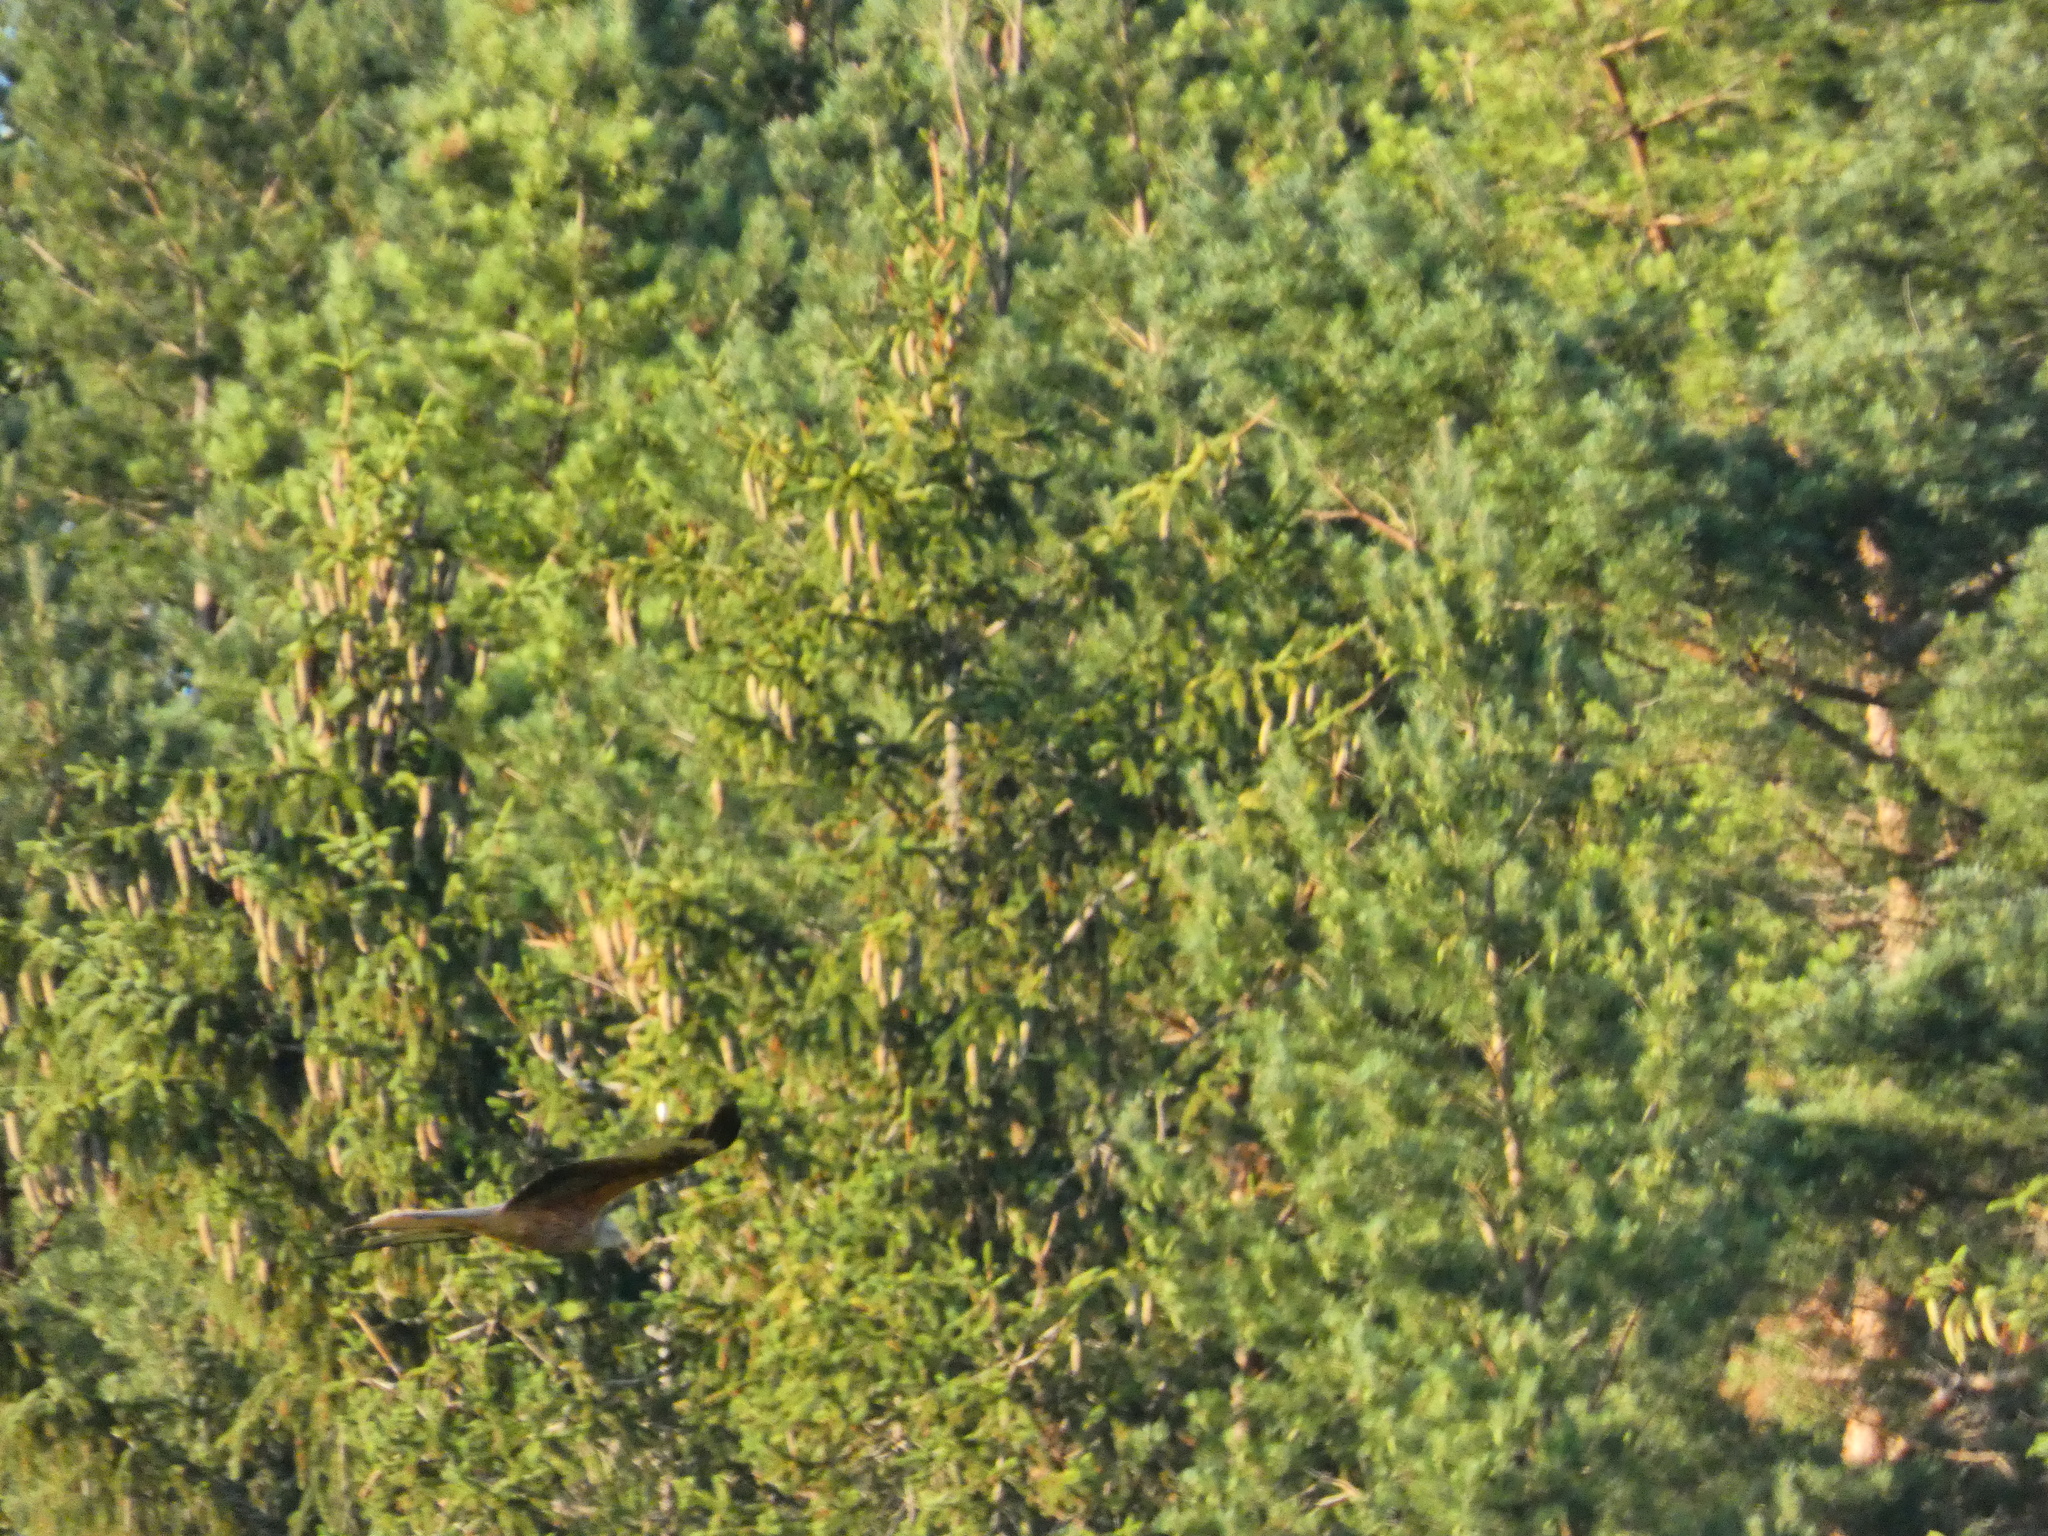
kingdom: Animalia
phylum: Chordata
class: Aves
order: Accipitriformes
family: Accipitridae
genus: Milvus
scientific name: Milvus milvus
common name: Red kite
